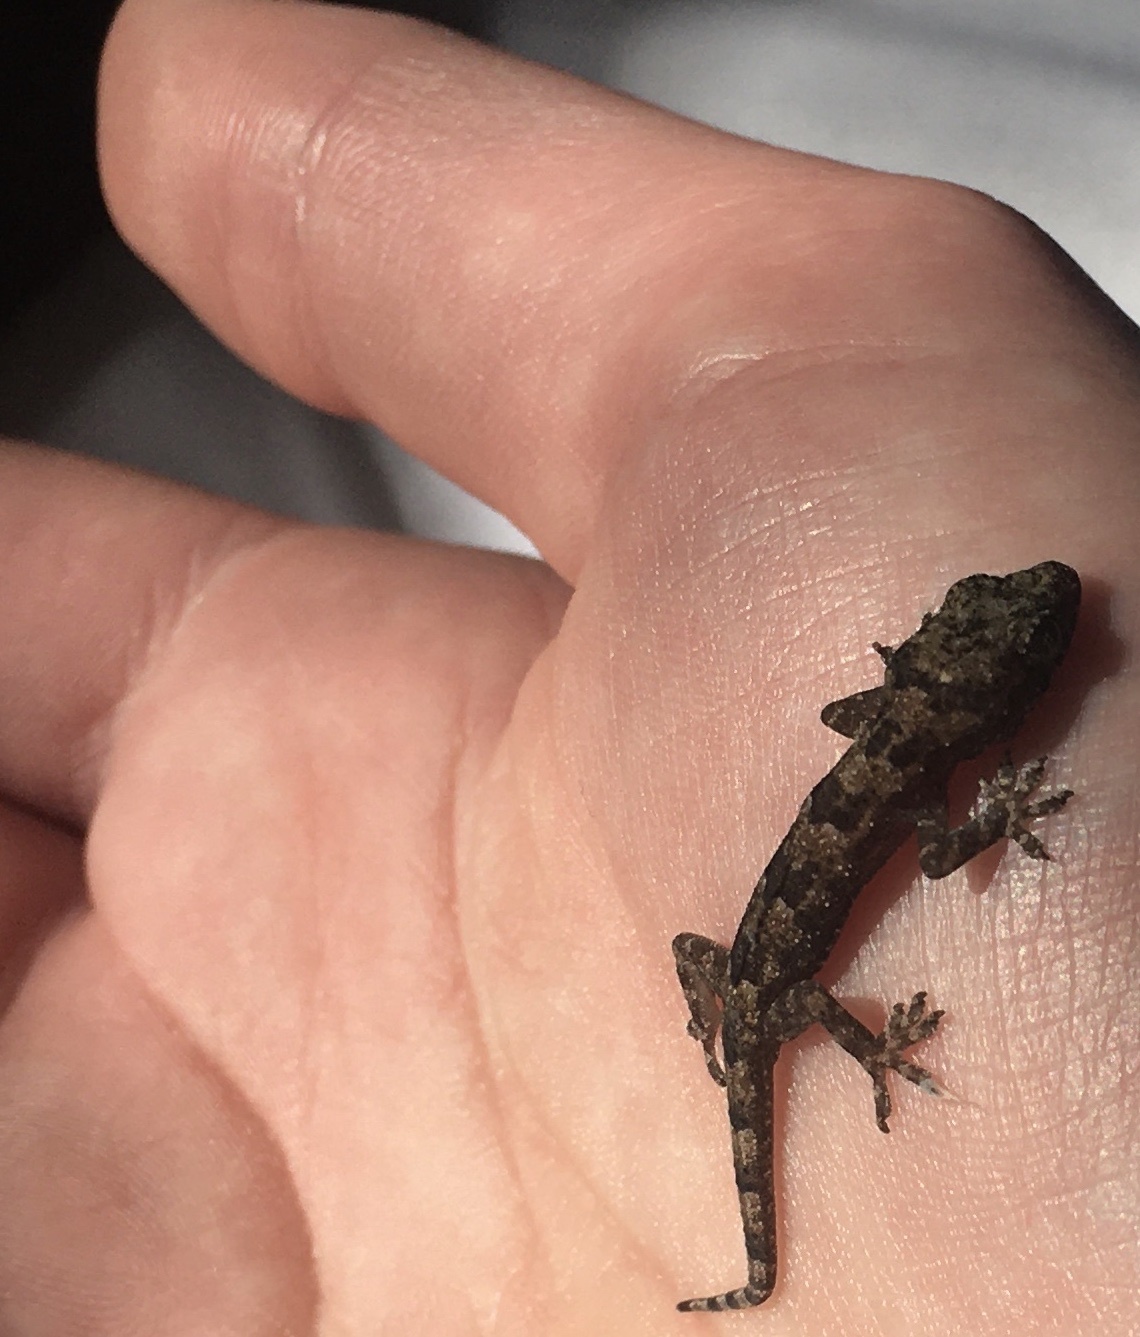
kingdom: Animalia
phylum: Chordata
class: Squamata
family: Gekkonidae
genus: Hemidactylus
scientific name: Hemidactylus mabouia
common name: House gecko
